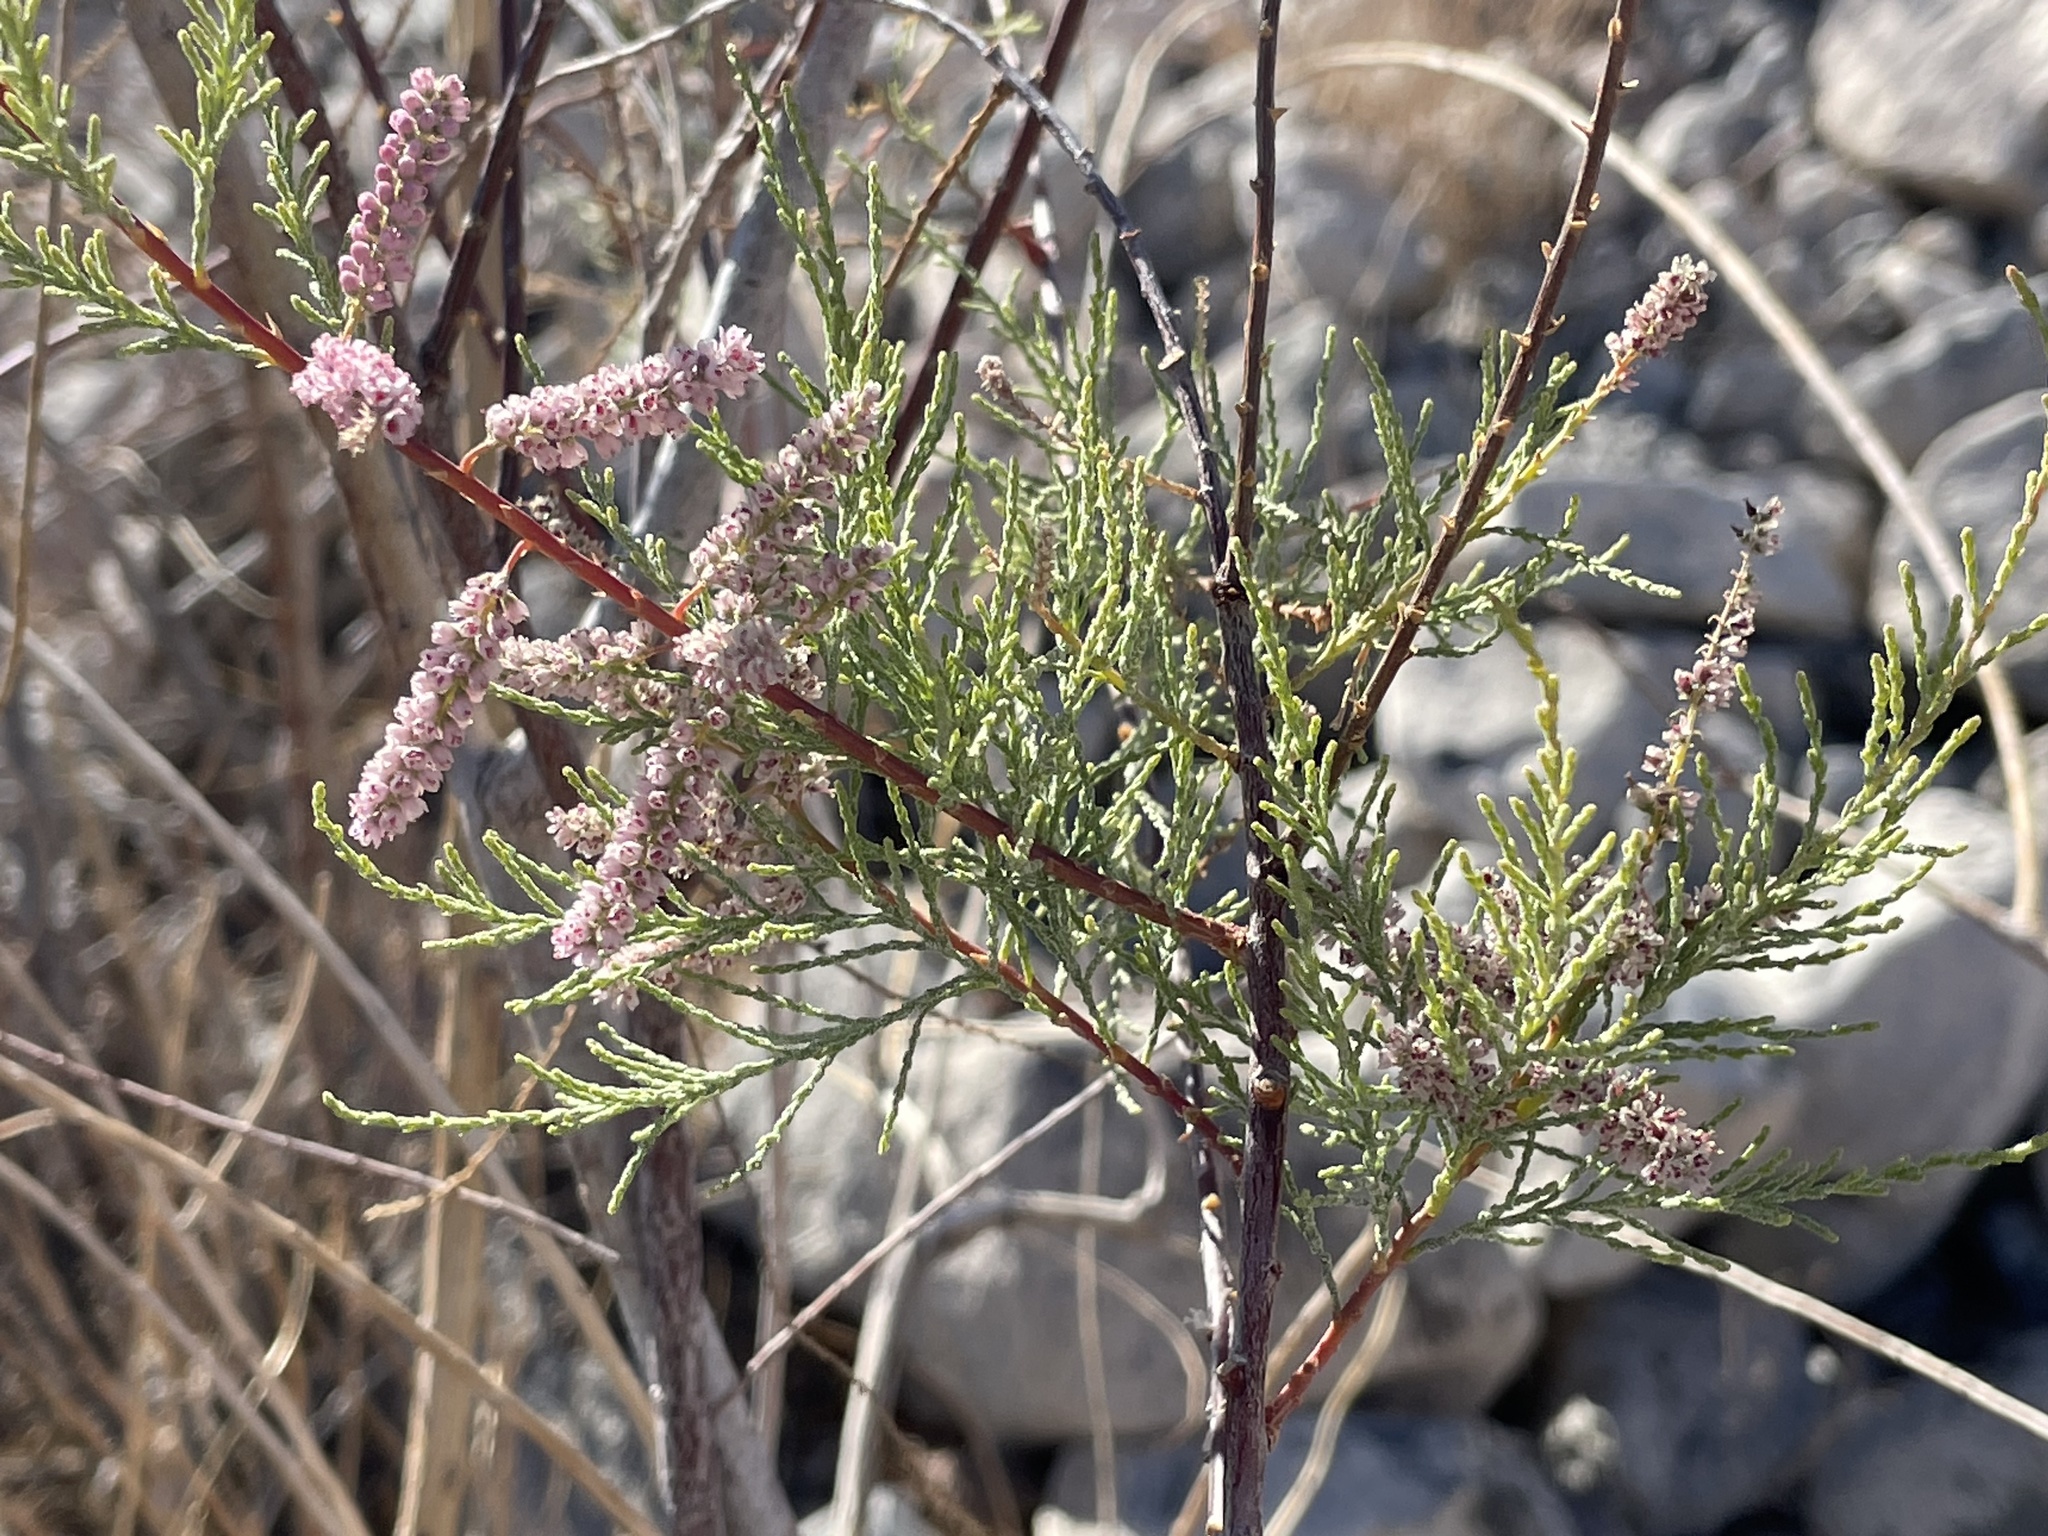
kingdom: Plantae
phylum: Tracheophyta
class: Magnoliopsida
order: Caryophyllales
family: Tamaricaceae
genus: Tamarix
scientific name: Tamarix
